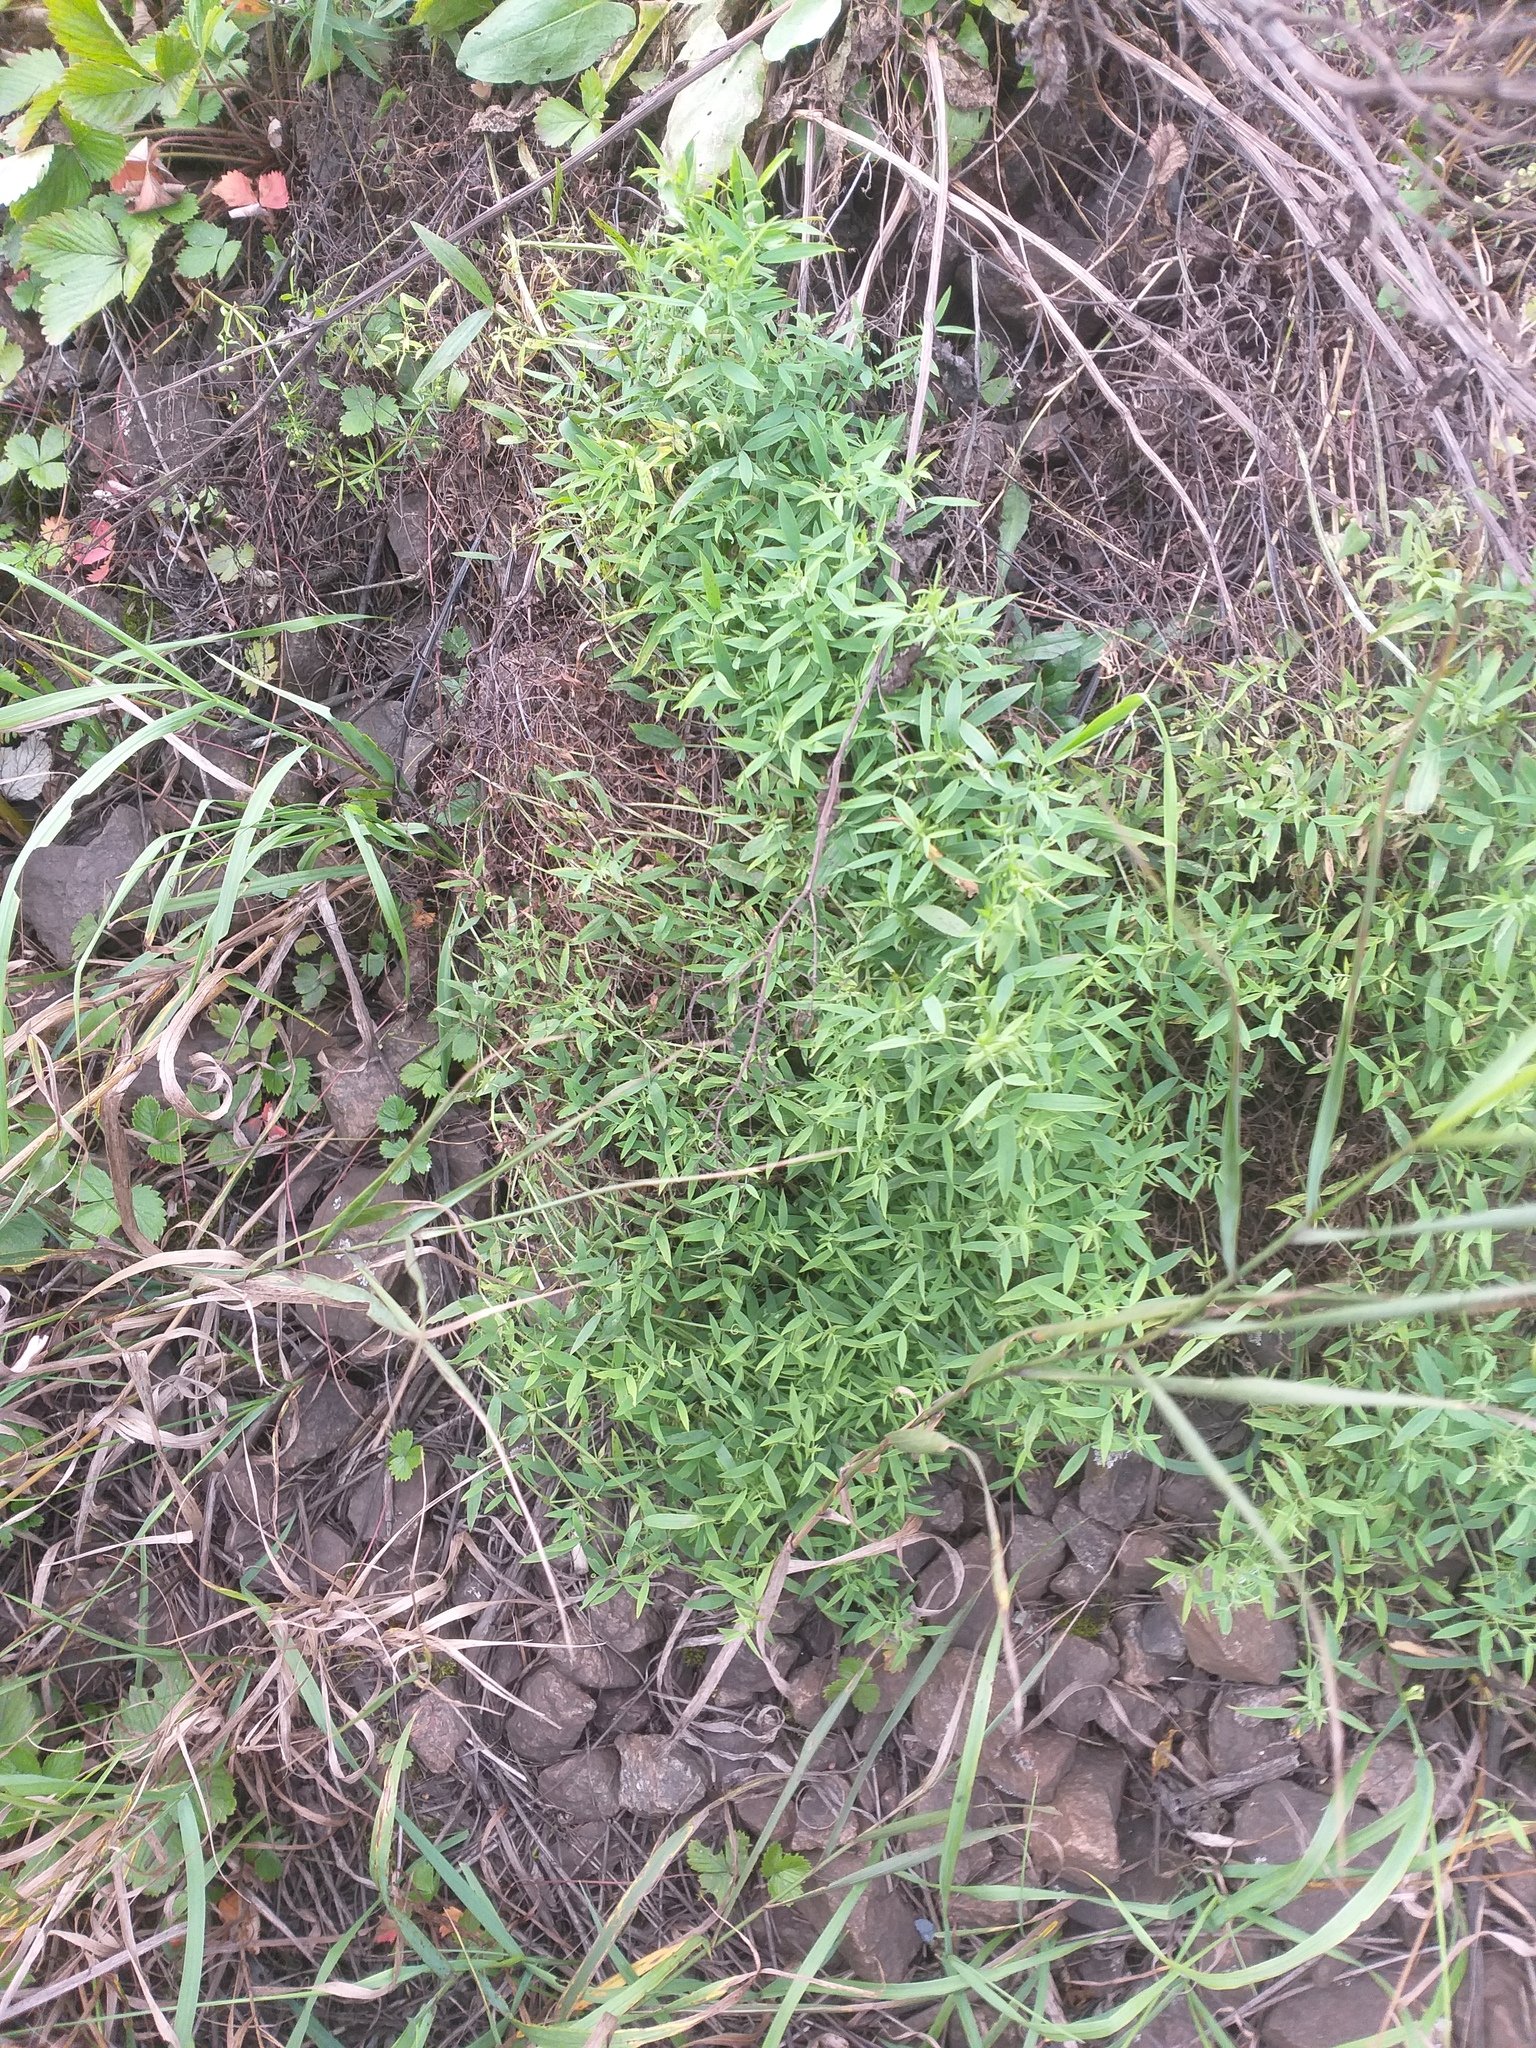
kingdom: Plantae
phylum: Tracheophyta
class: Magnoliopsida
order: Fabales
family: Fabaceae
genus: Lathyrus
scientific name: Lathyrus pratensis
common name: Meadow vetchling
